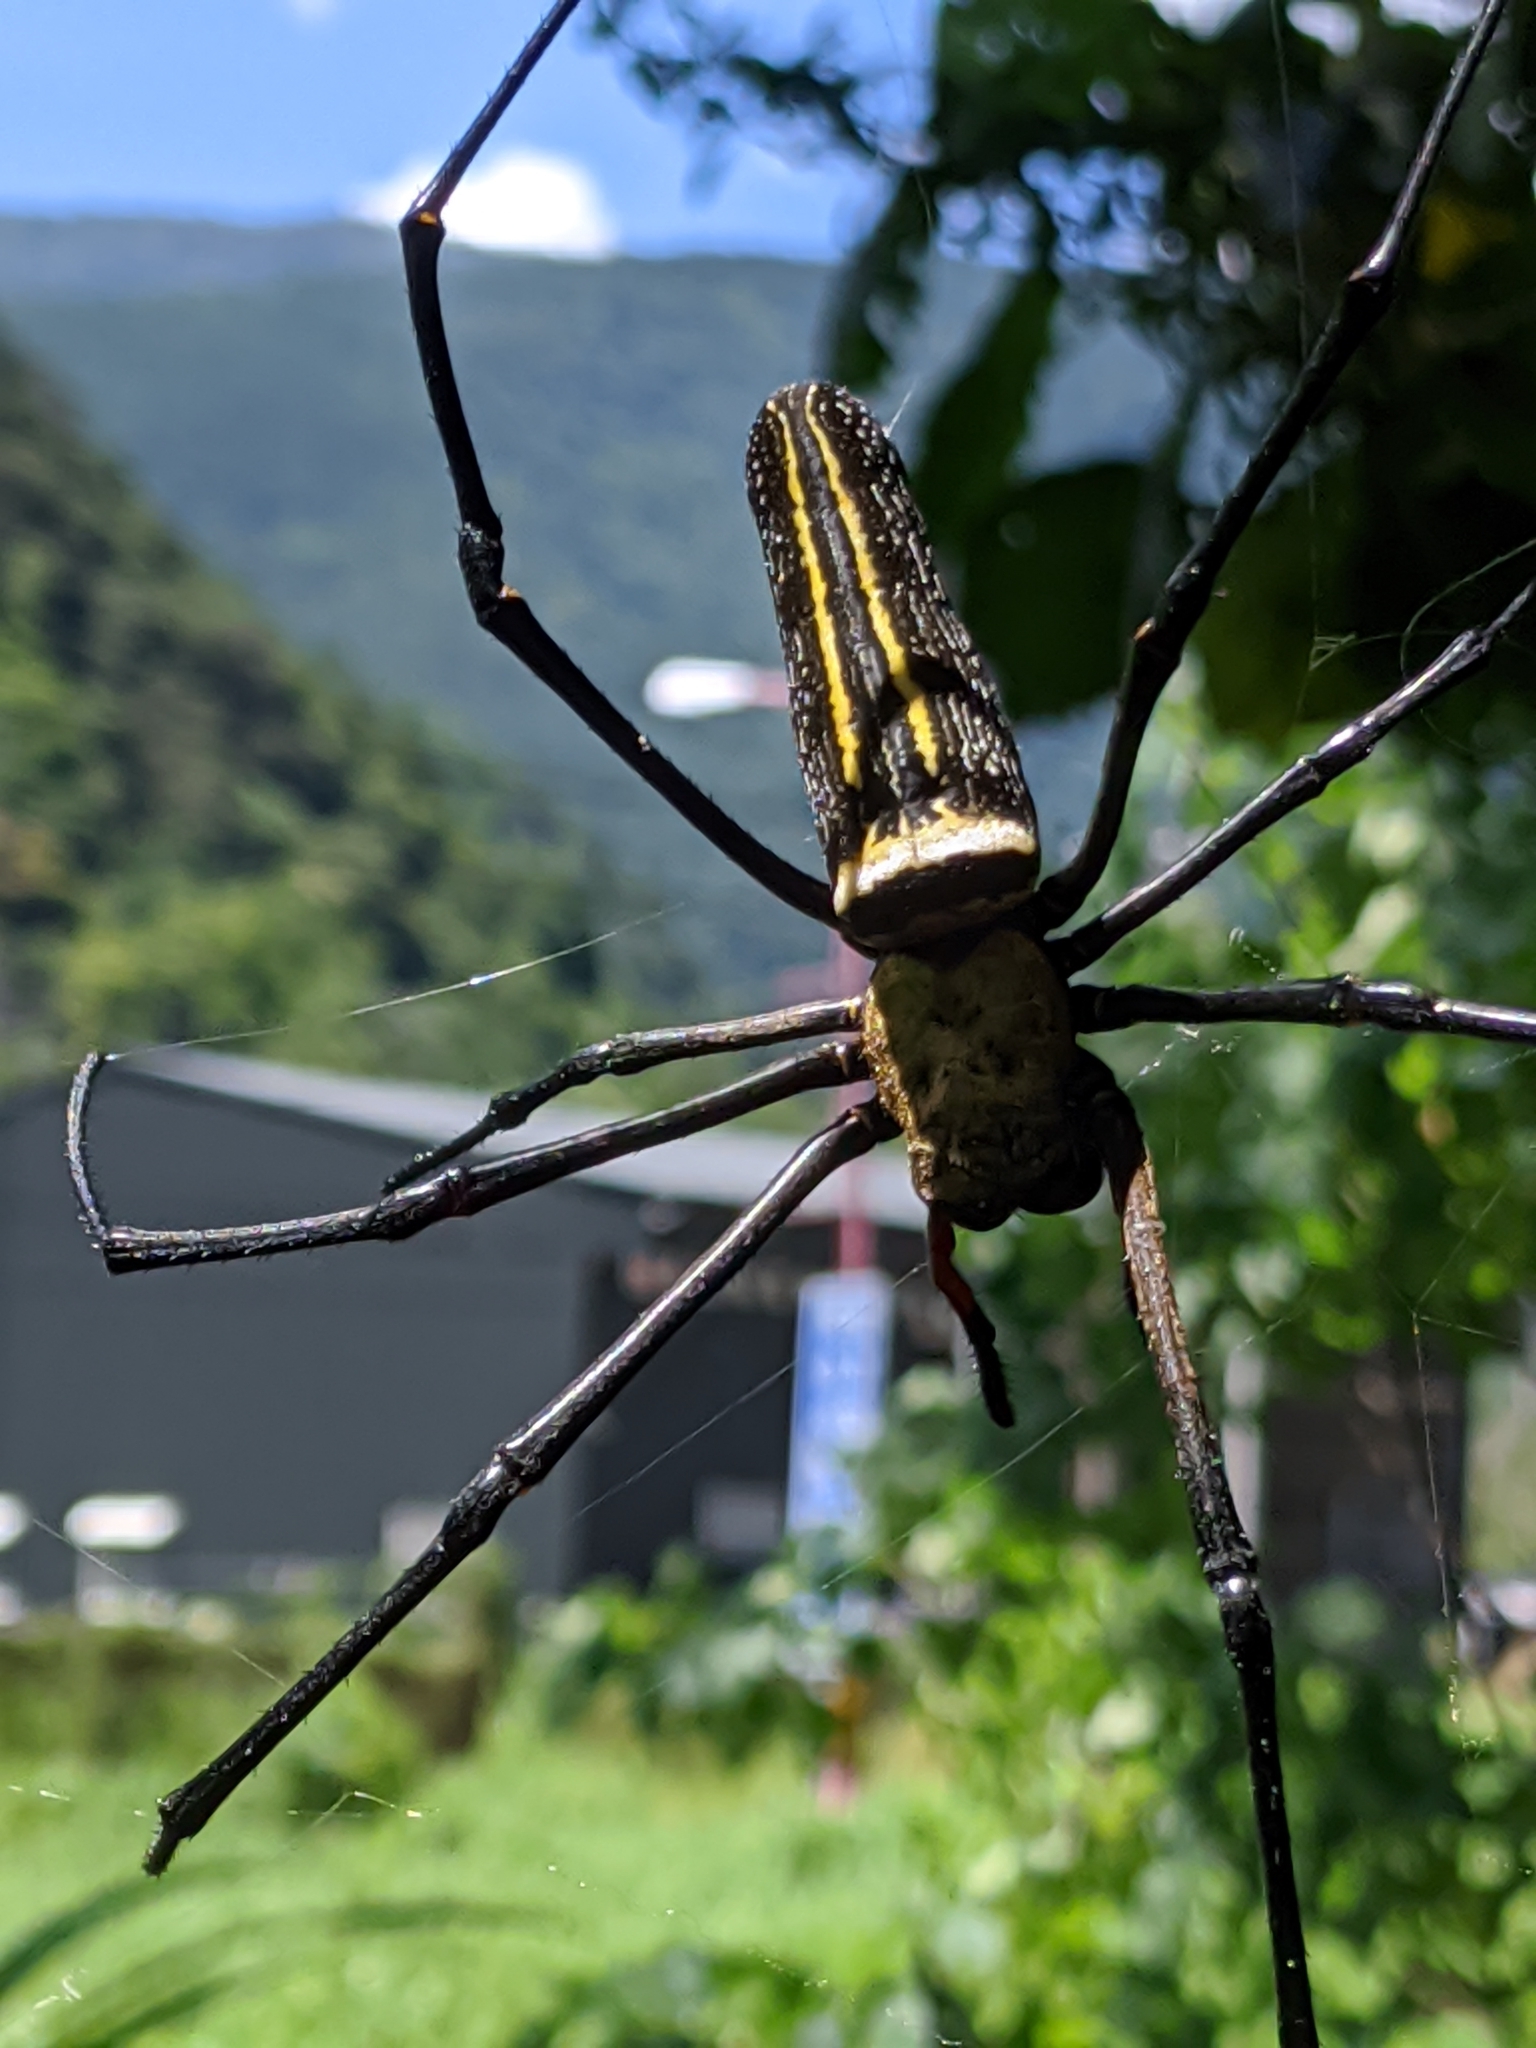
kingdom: Animalia
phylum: Arthropoda
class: Arachnida
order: Araneae
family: Araneidae
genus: Nephila
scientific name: Nephila pilipes
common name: Giant golden orb weaver
